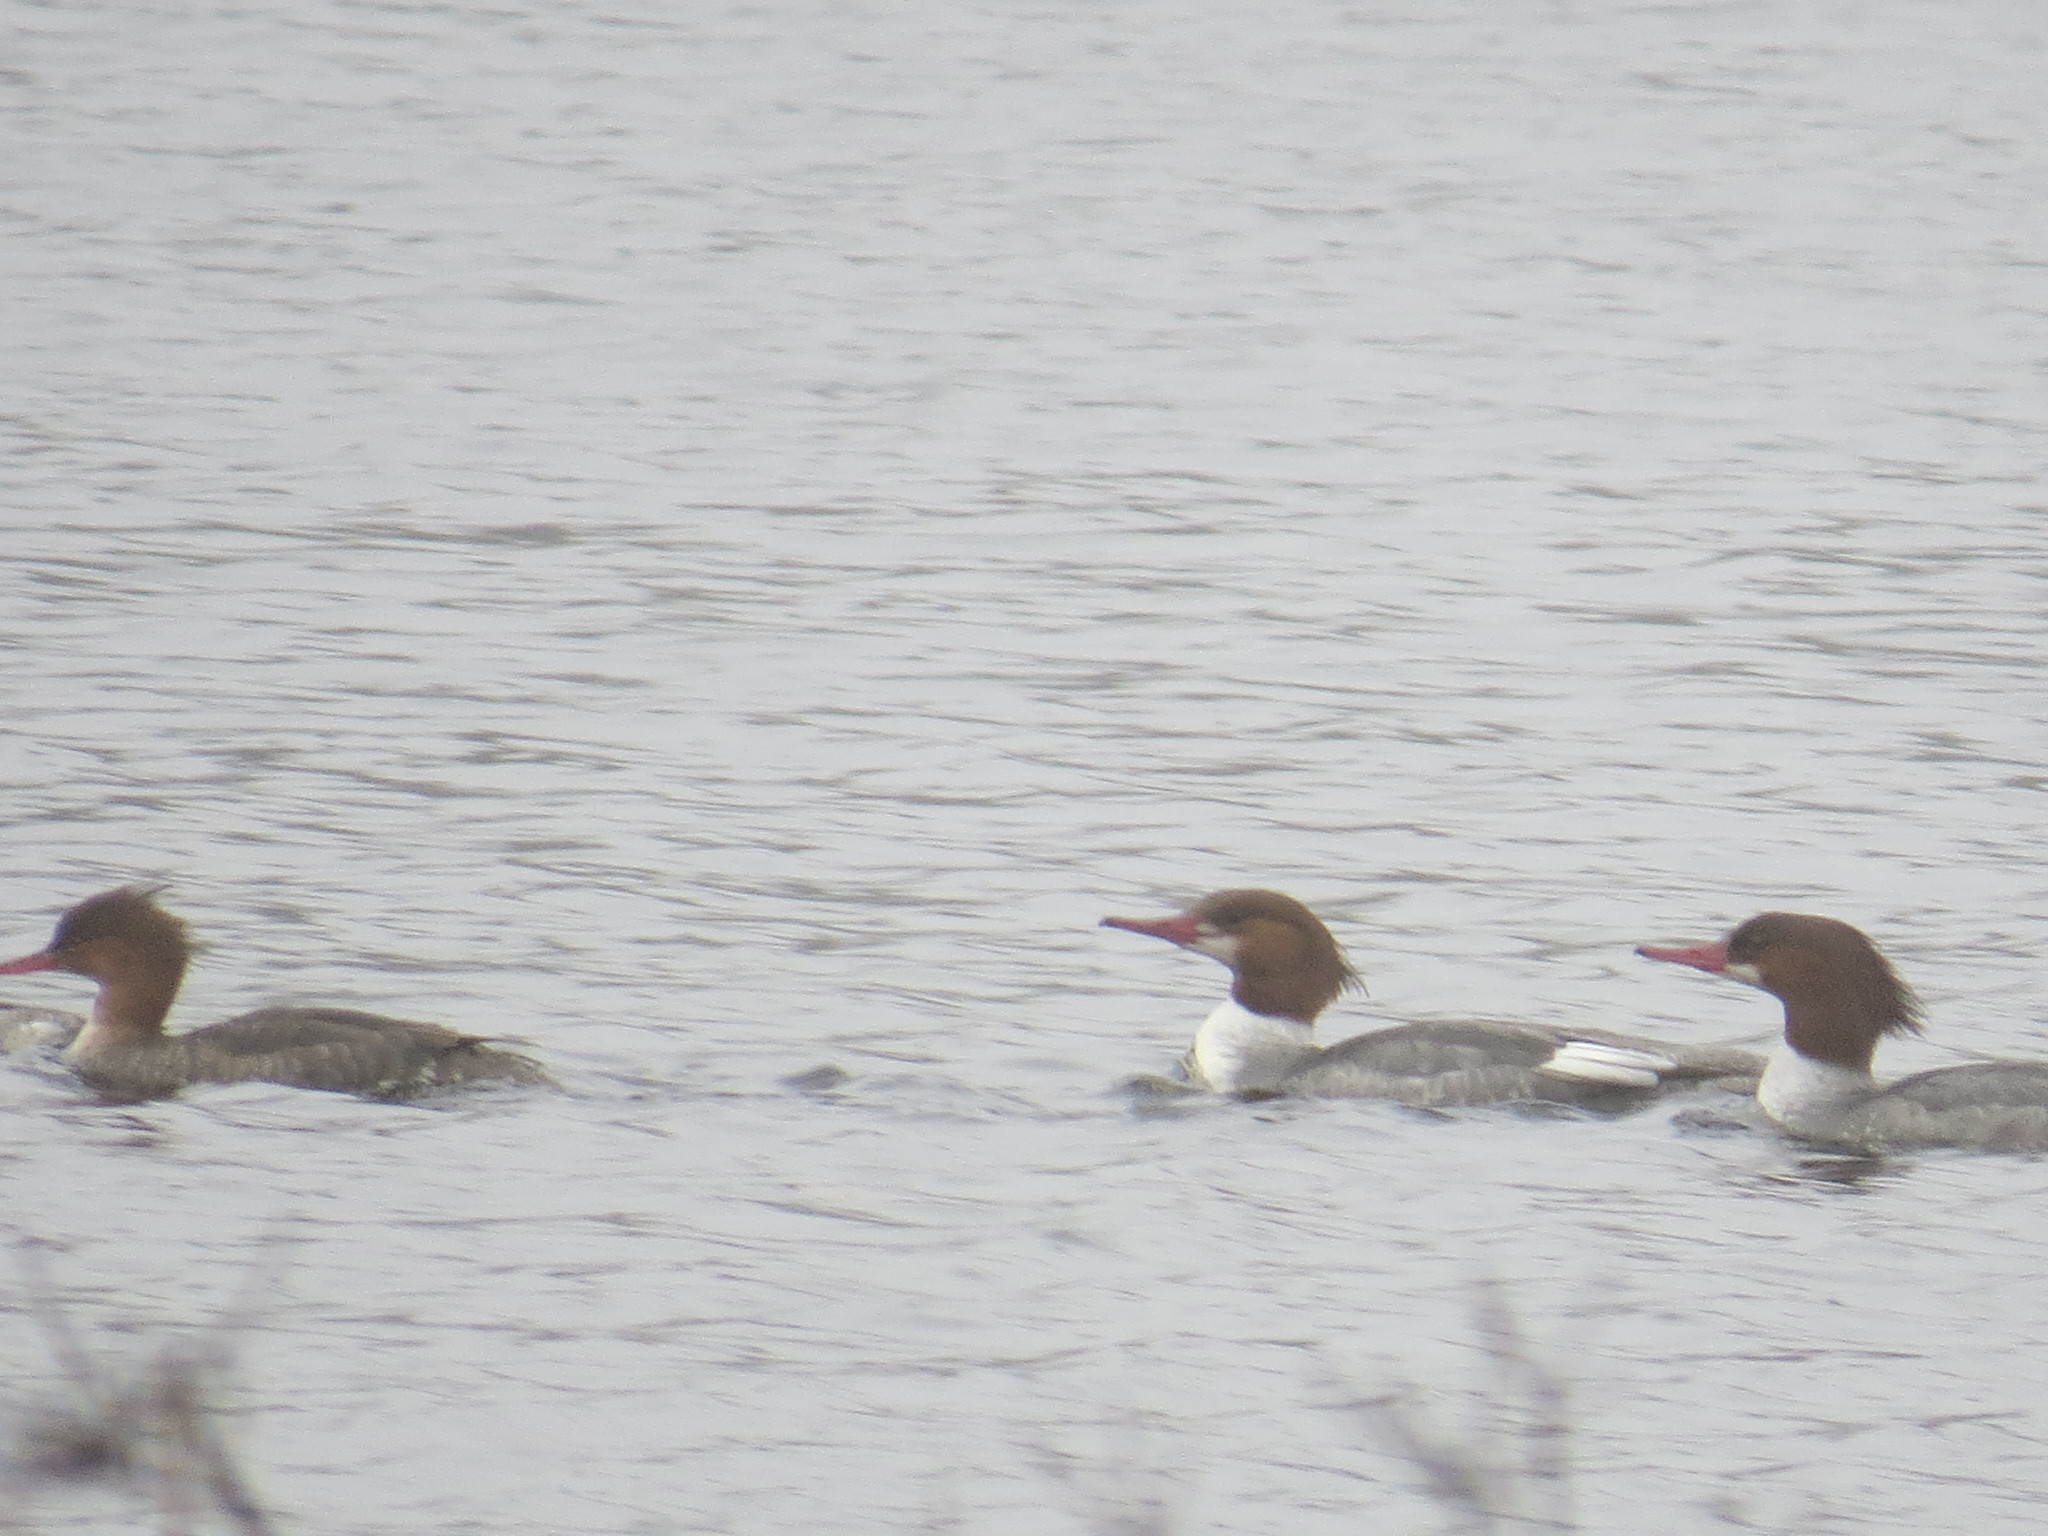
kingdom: Animalia
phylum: Chordata
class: Aves
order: Anseriformes
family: Anatidae
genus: Mergus
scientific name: Mergus merganser
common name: Common merganser
